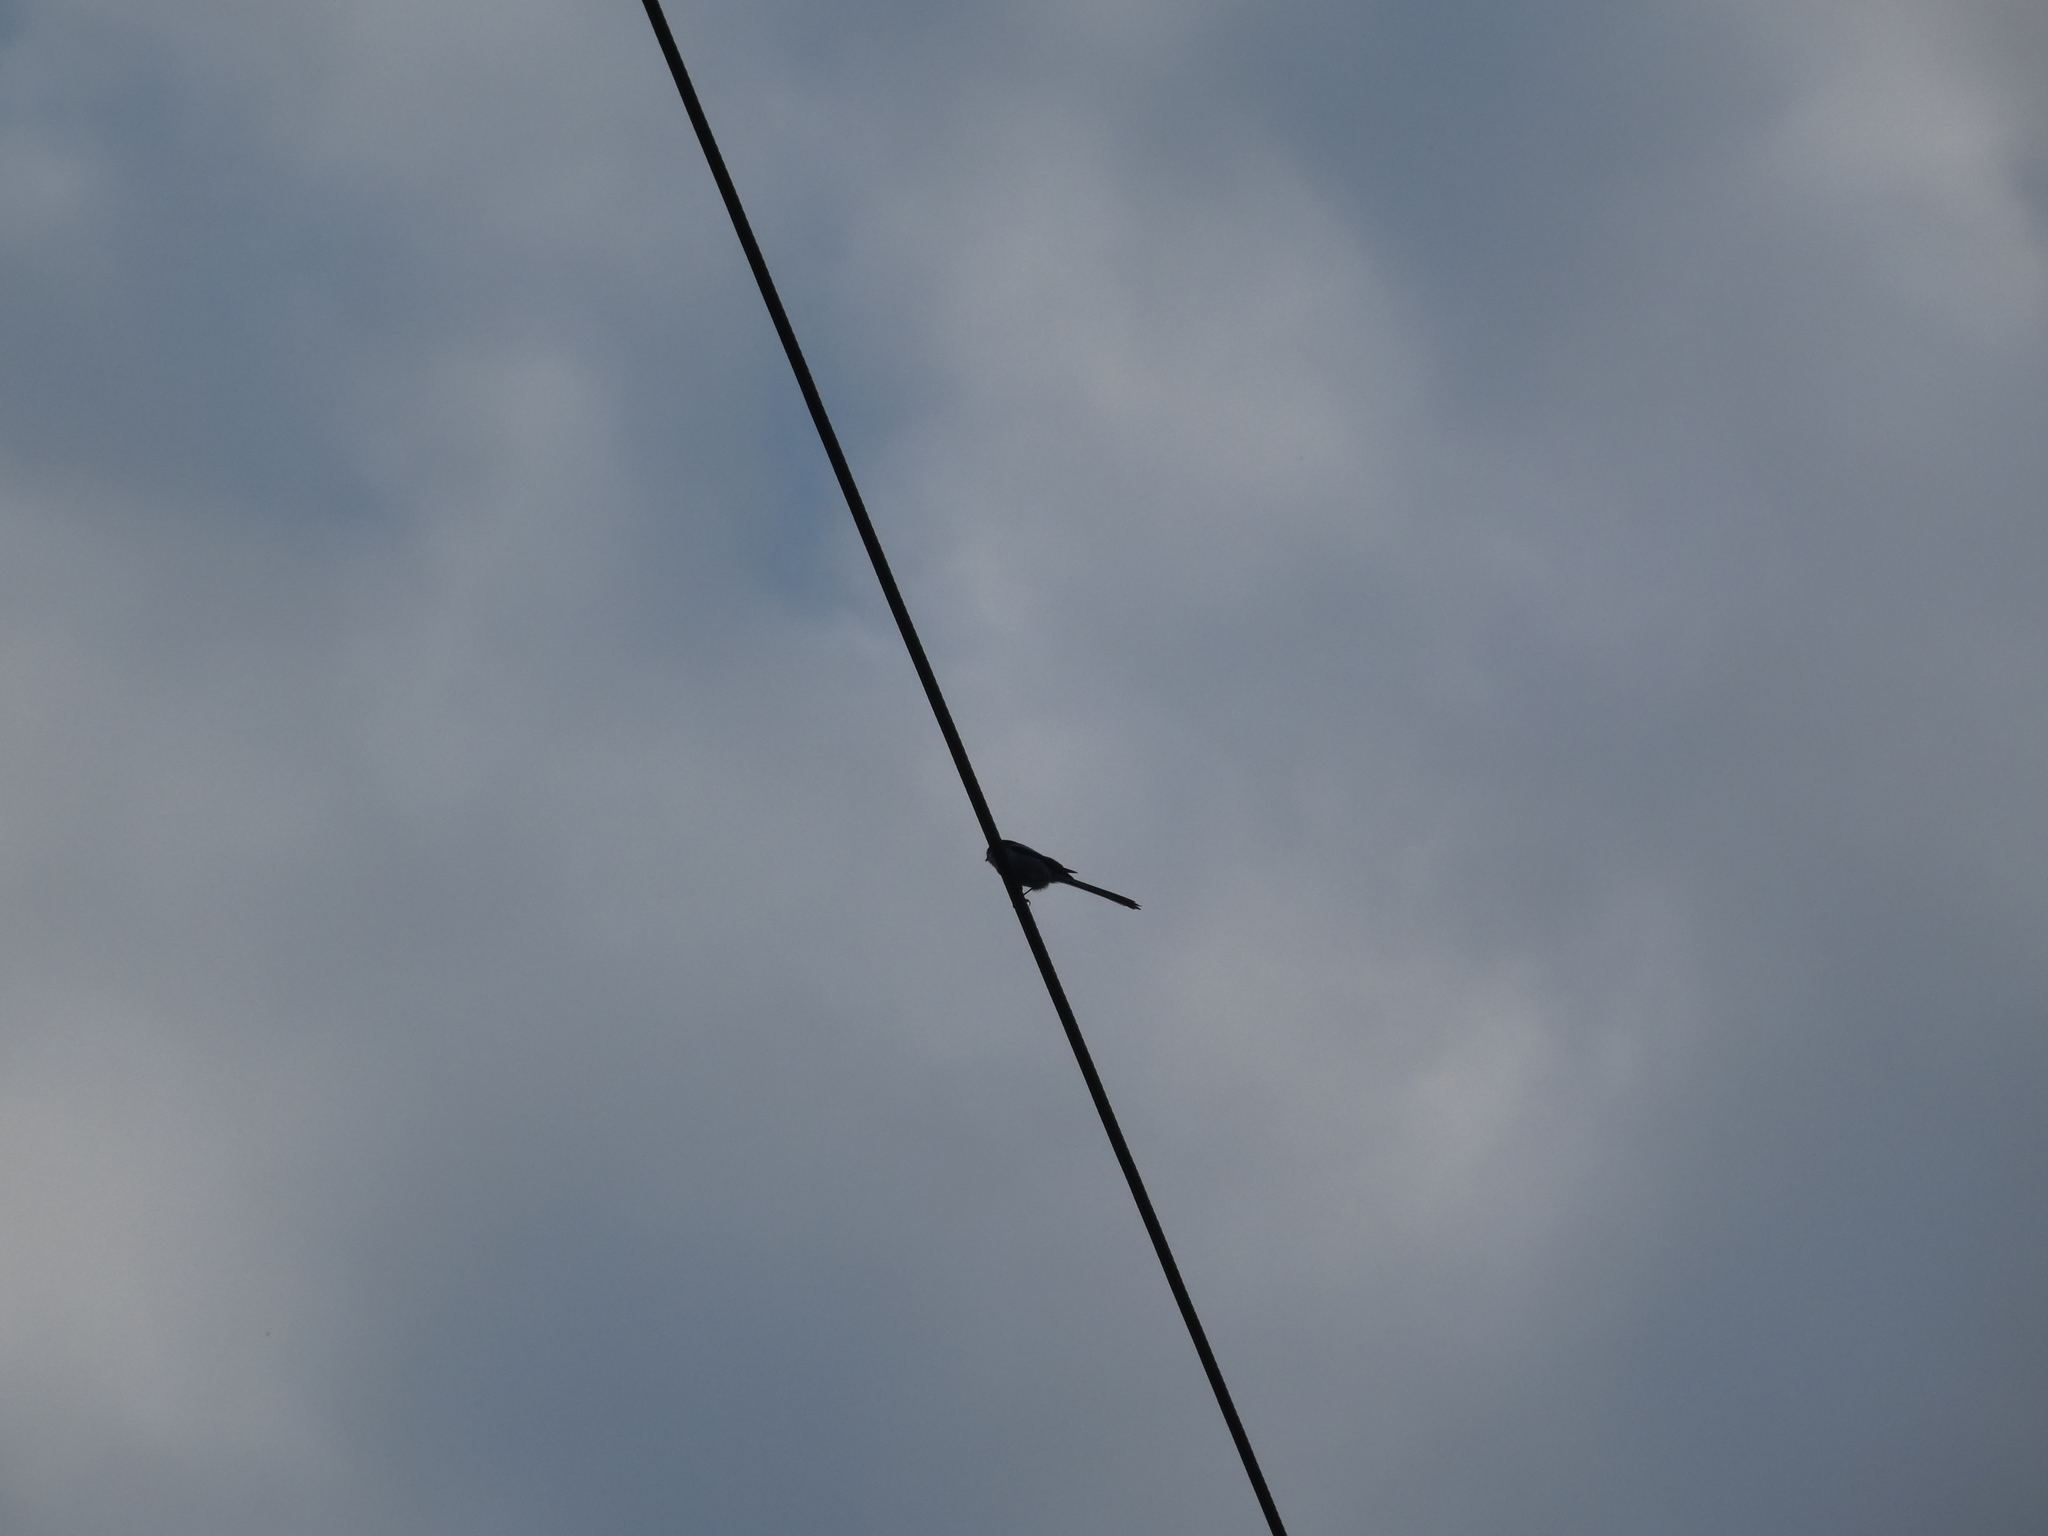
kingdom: Animalia
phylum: Chordata
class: Aves
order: Passeriformes
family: Aegithalidae
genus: Aegithalos
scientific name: Aegithalos caudatus
